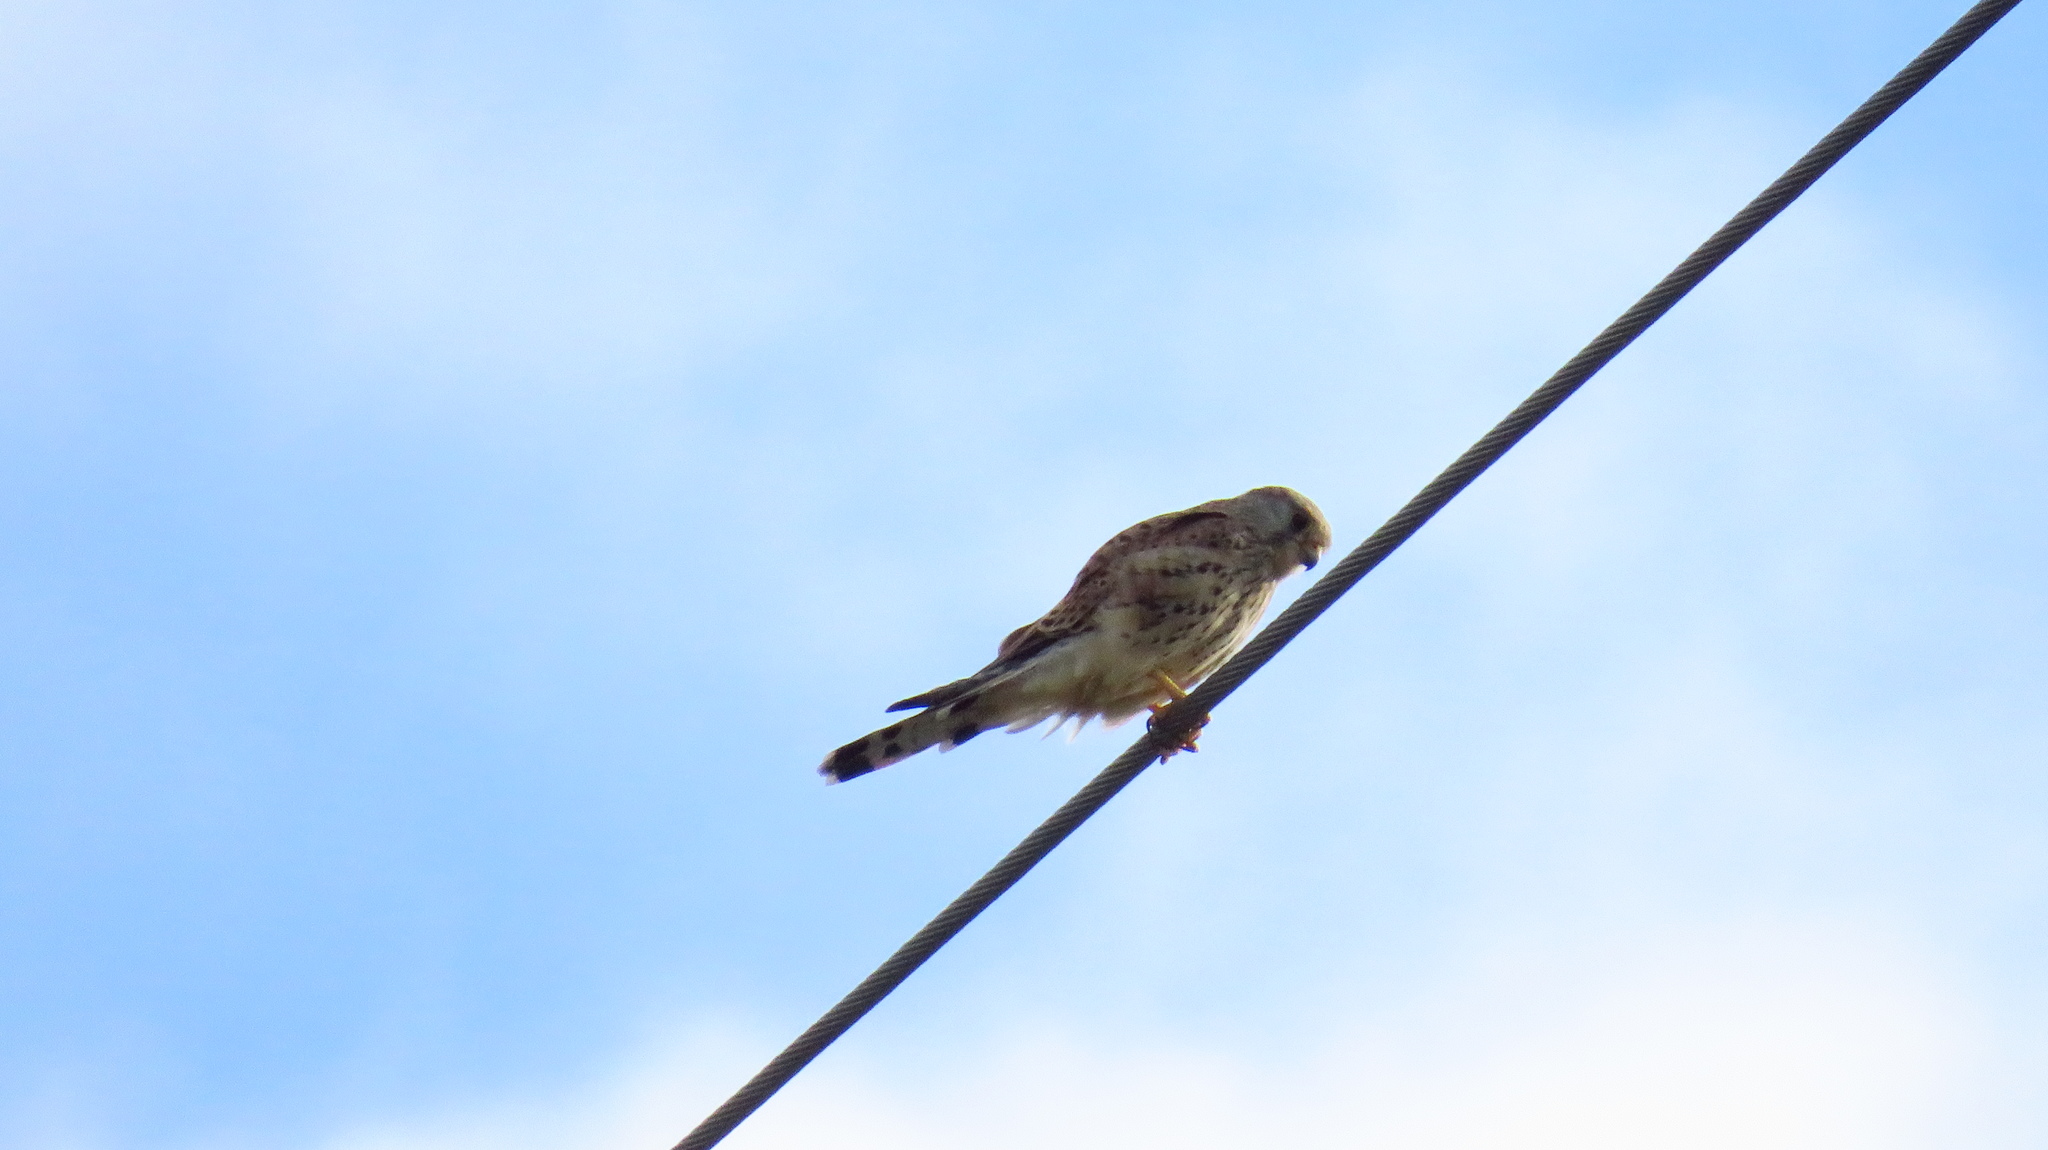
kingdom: Animalia
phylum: Chordata
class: Aves
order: Falconiformes
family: Falconidae
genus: Falco
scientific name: Falco tinnunculus
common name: Common kestrel
